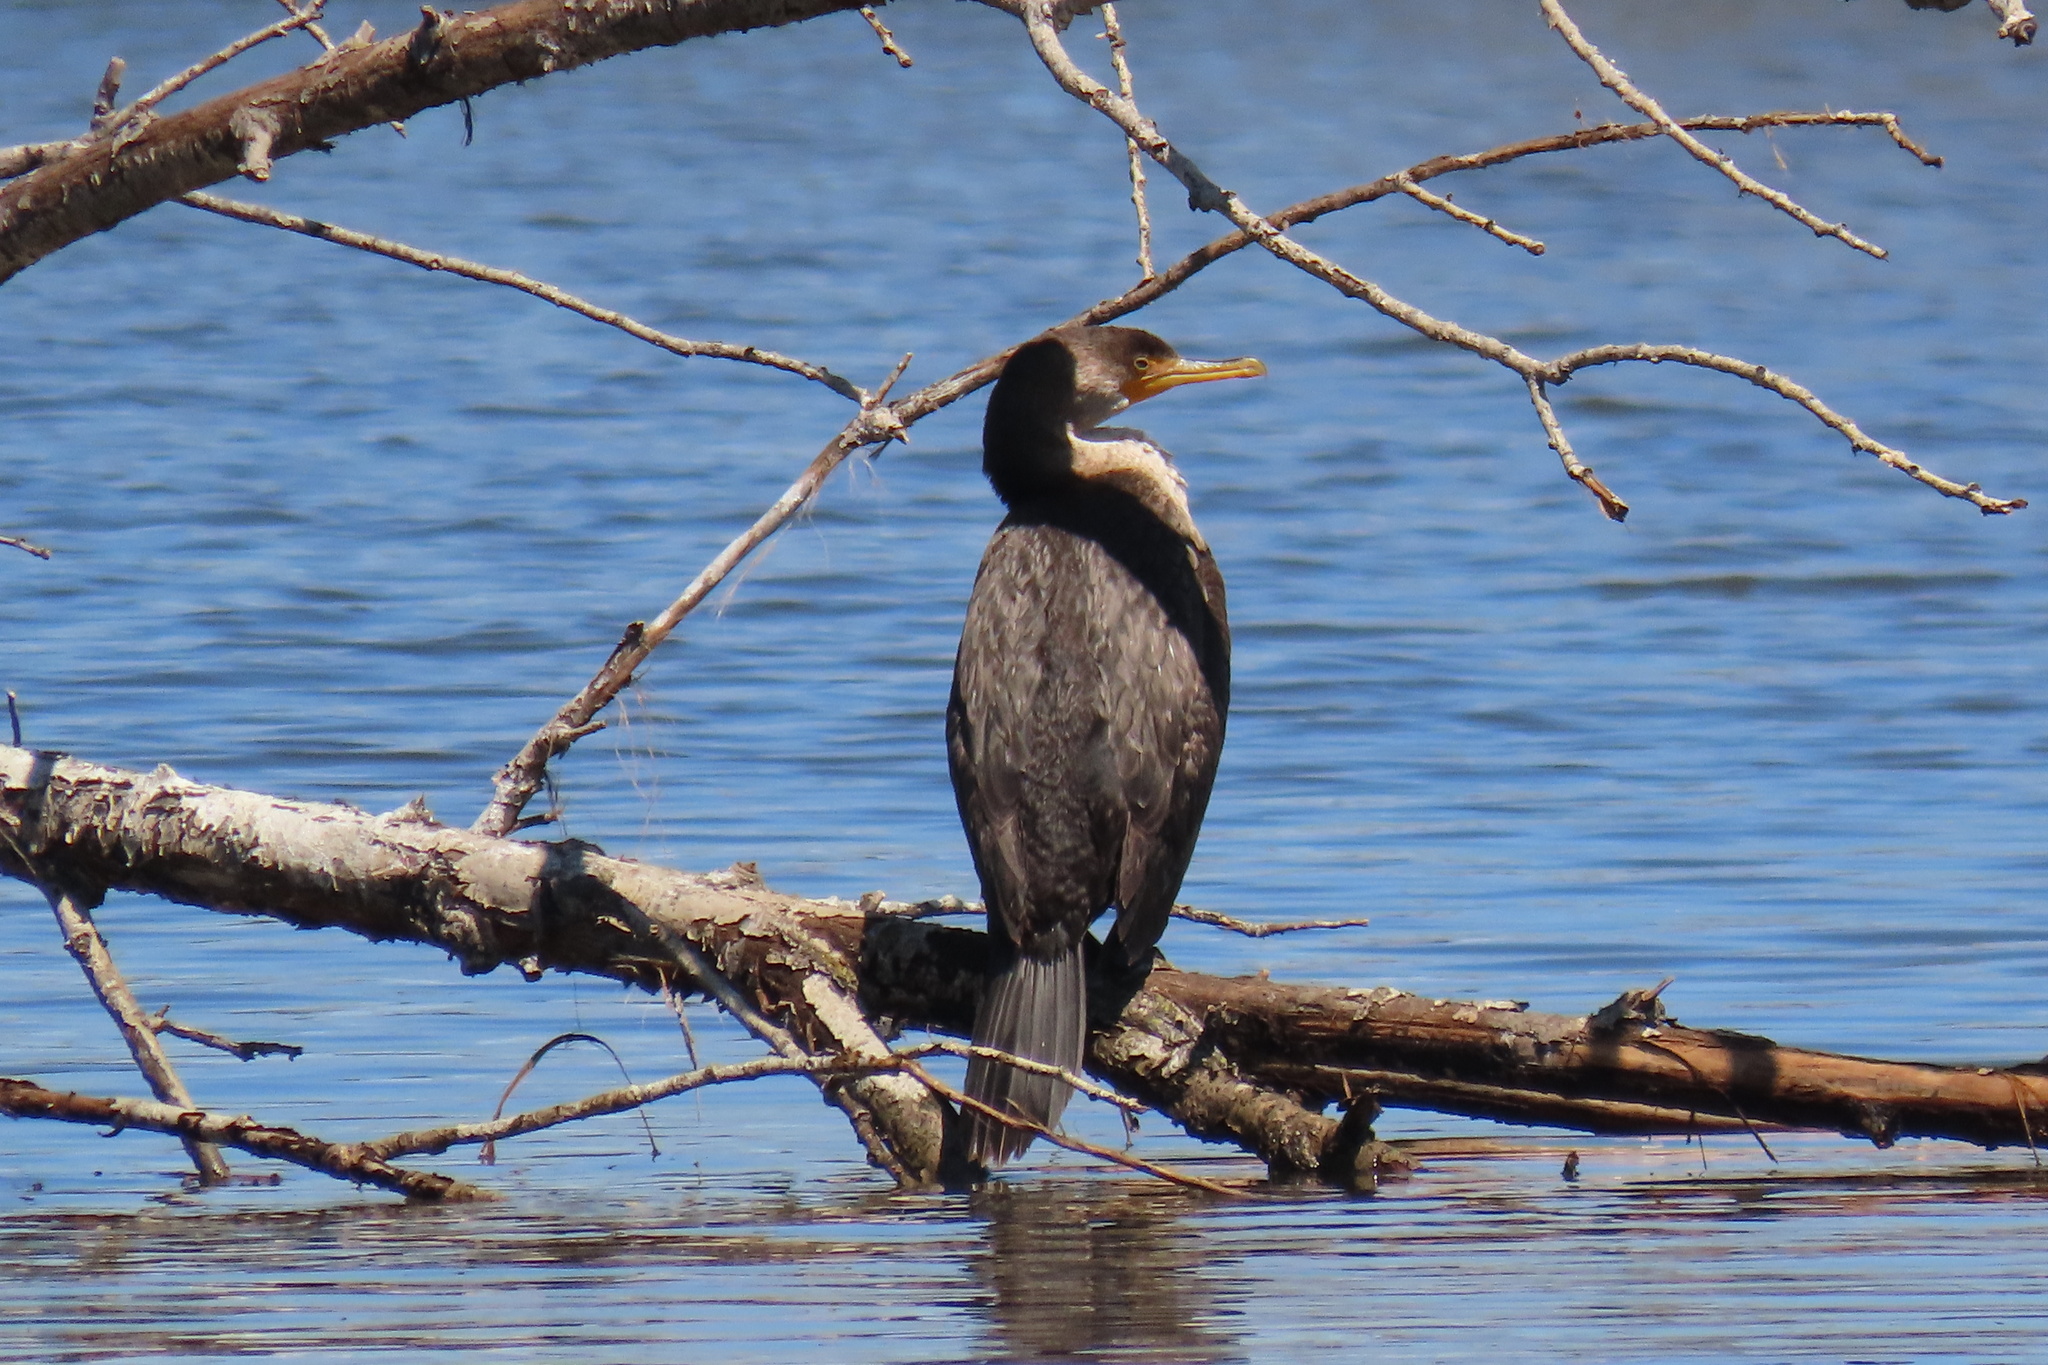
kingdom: Animalia
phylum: Chordata
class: Aves
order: Suliformes
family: Phalacrocoracidae
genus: Phalacrocorax
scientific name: Phalacrocorax auritus
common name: Double-crested cormorant
